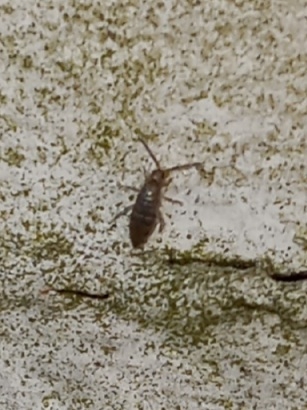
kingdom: Animalia
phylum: Arthropoda
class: Collembola
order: Entomobryomorpha
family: Entomobryidae
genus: Willowsia
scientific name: Willowsia nigromaculata
